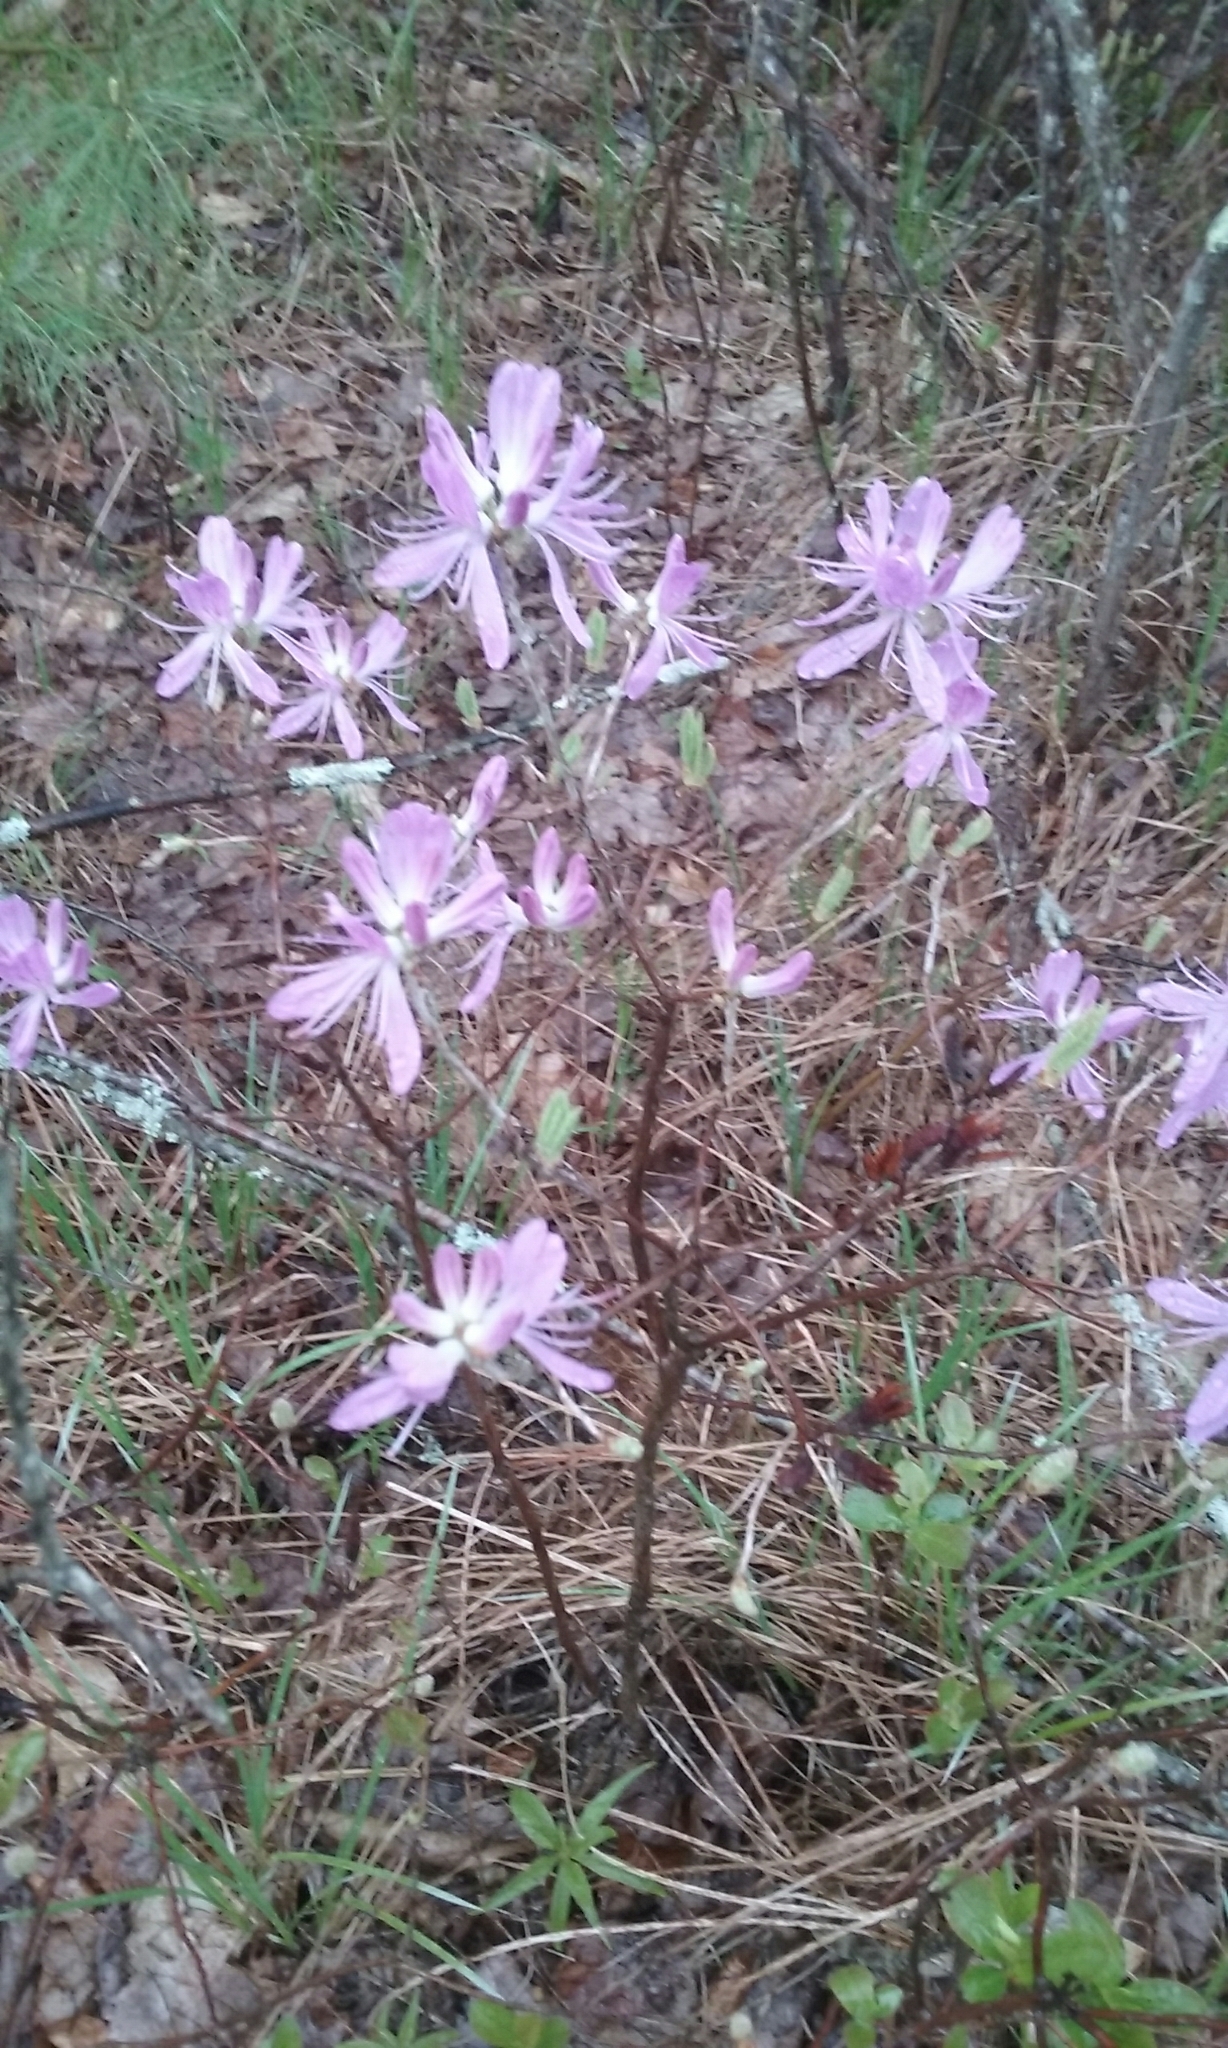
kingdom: Plantae
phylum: Tracheophyta
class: Magnoliopsida
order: Ericales
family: Ericaceae
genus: Rhododendron
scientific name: Rhododendron canadense
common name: Rhodora
